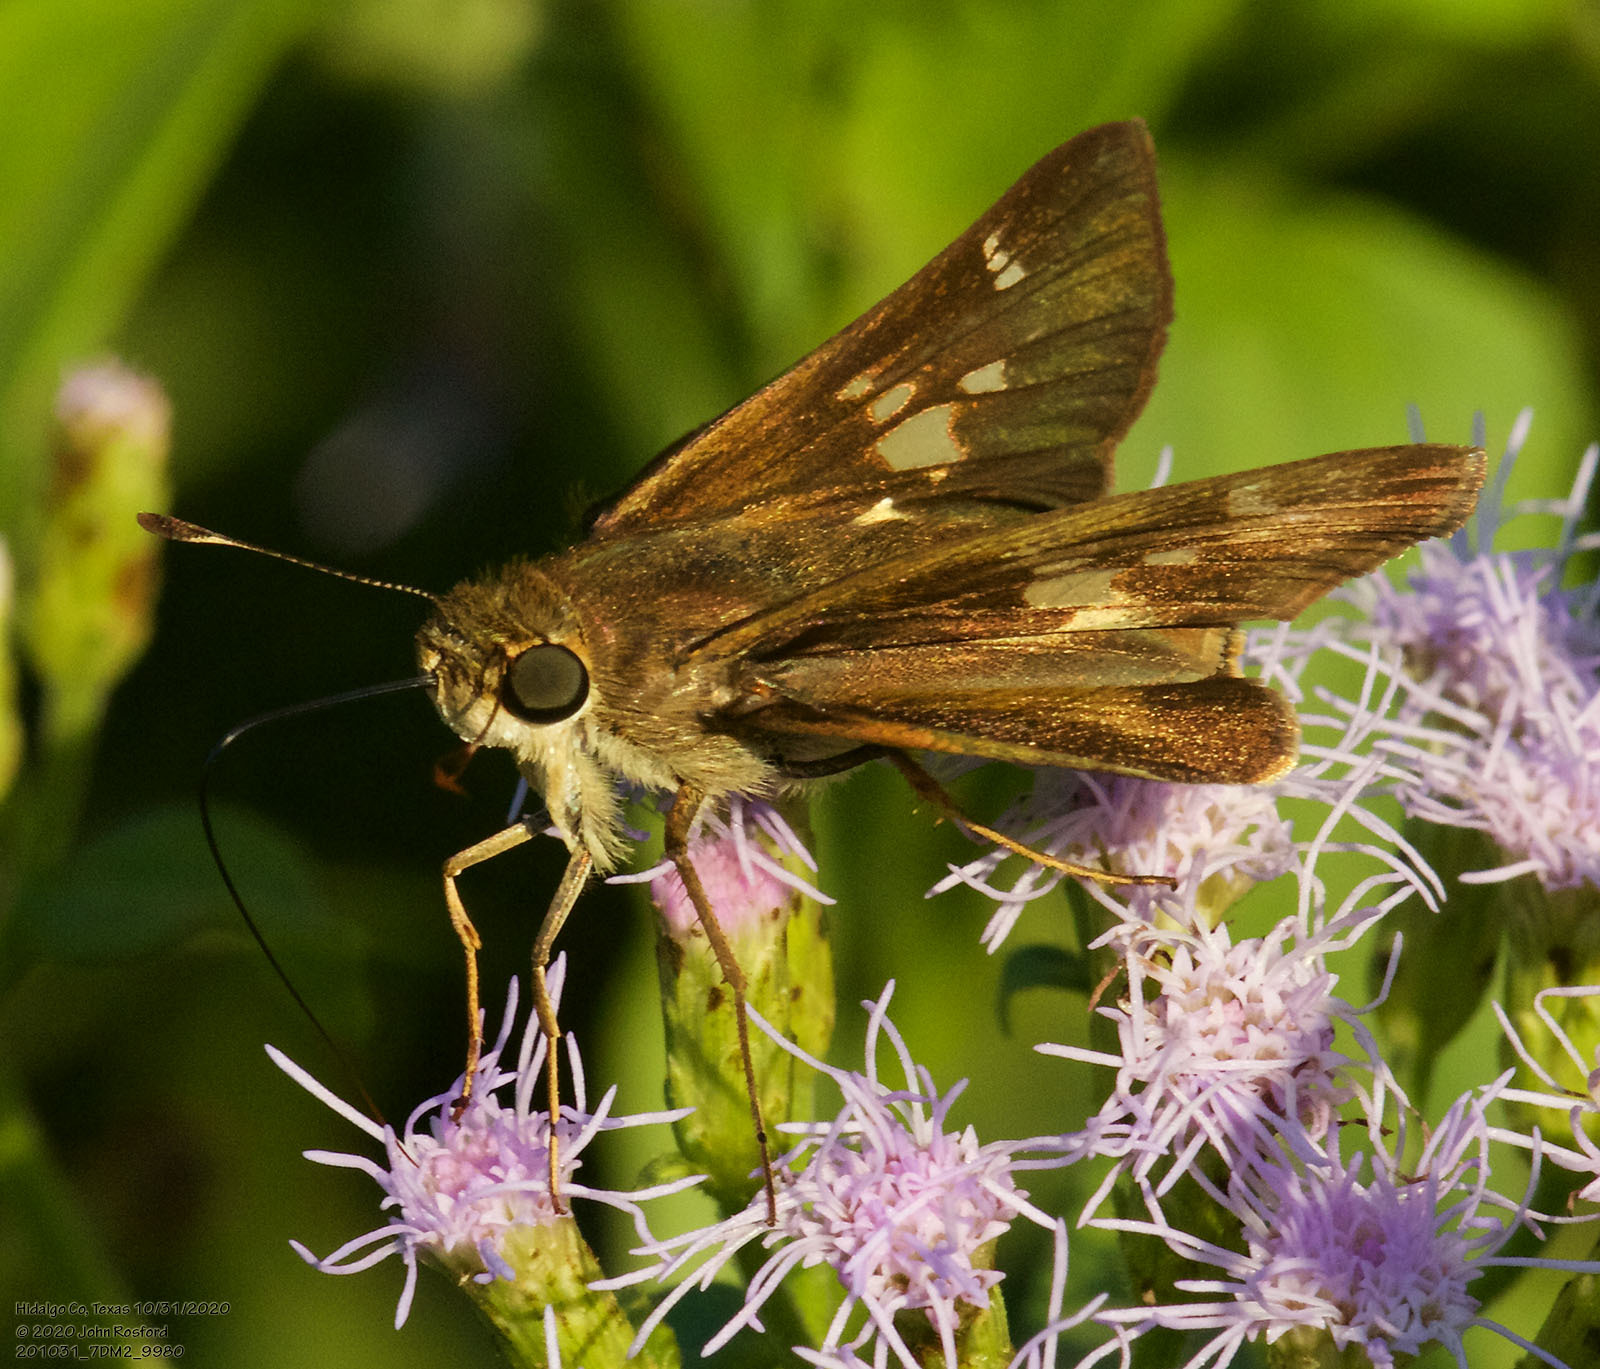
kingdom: Animalia
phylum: Arthropoda
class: Insecta
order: Lepidoptera
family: Hesperiidae
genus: Nyctelius
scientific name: Nyctelius nyctelius
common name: Violet-banded skipper
